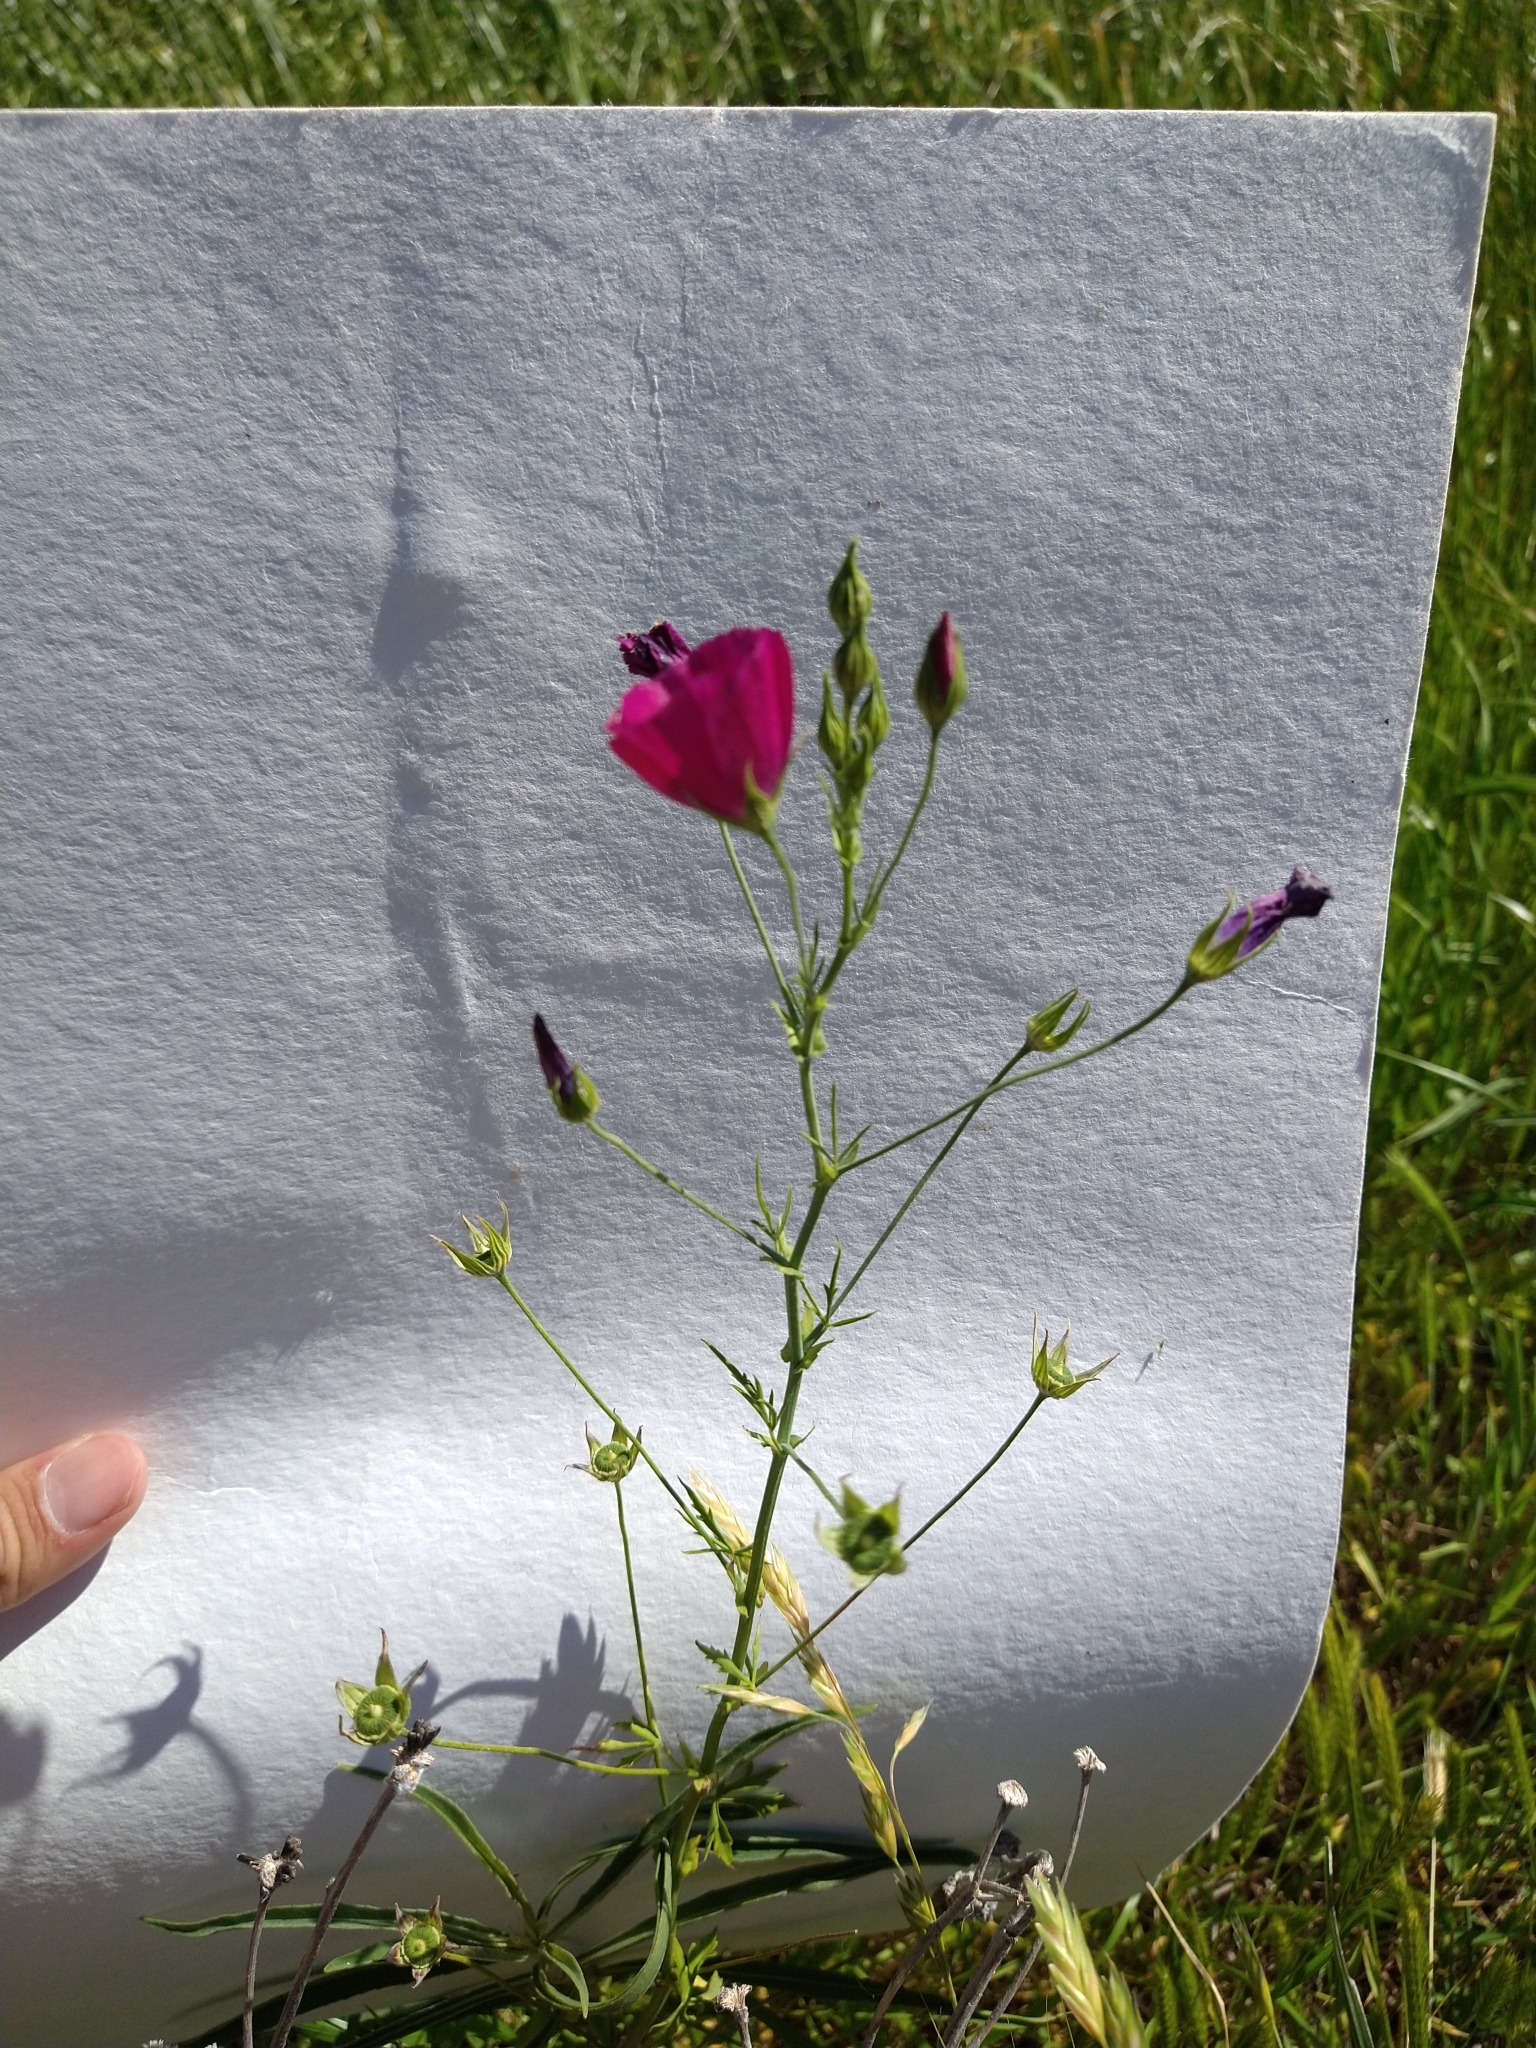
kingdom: Plantae
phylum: Tracheophyta
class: Magnoliopsida
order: Malvales
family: Malvaceae
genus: Callirhoe
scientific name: Callirhoe leiocarpa
